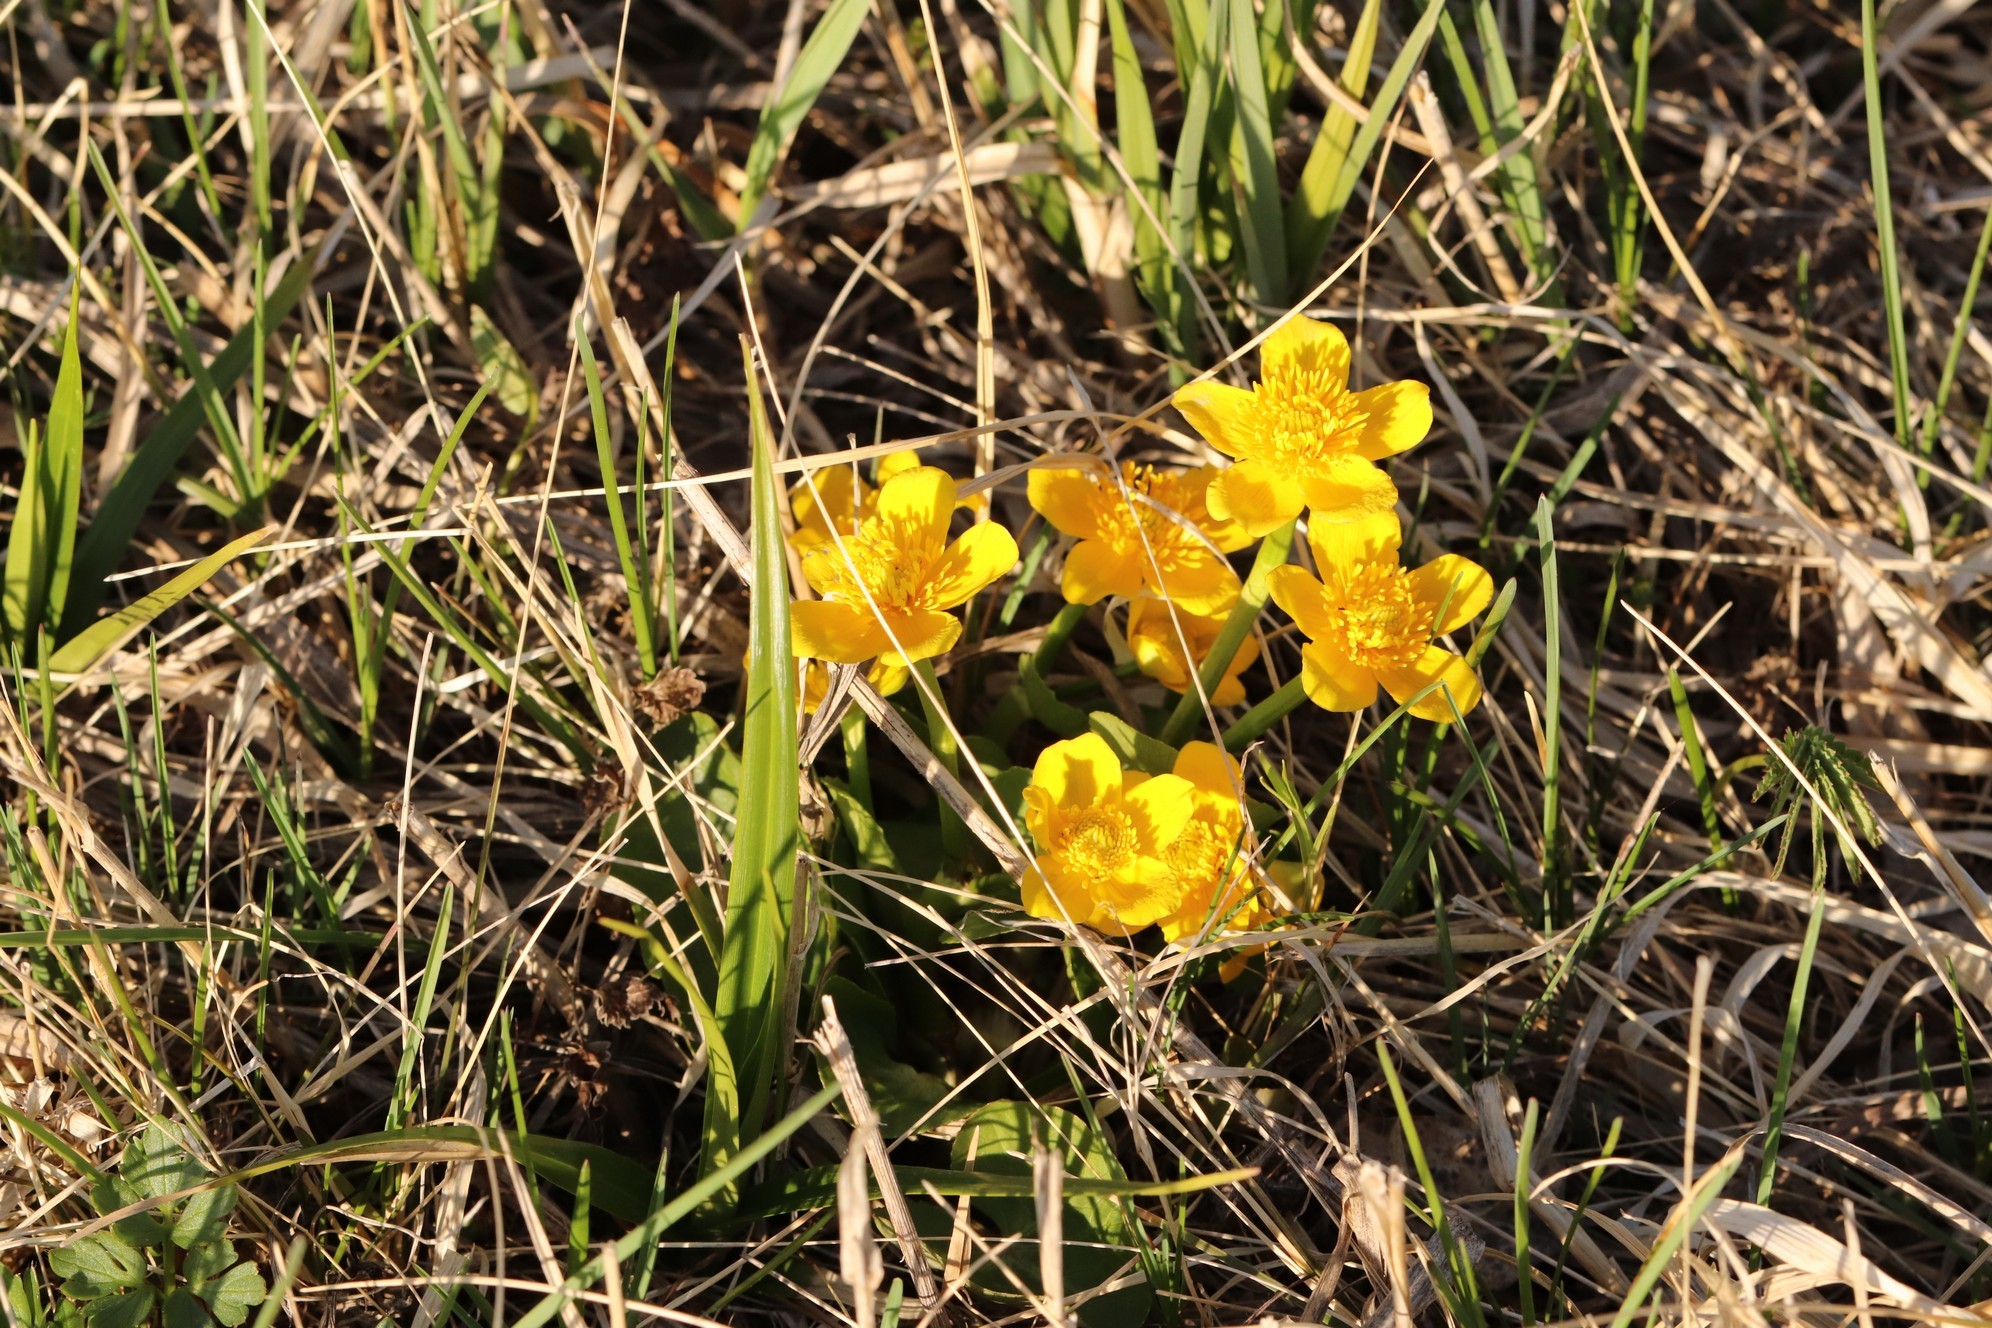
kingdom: Plantae
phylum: Tracheophyta
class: Magnoliopsida
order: Ranunculales
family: Ranunculaceae
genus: Caltha
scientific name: Caltha palustris
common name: Marsh marigold
